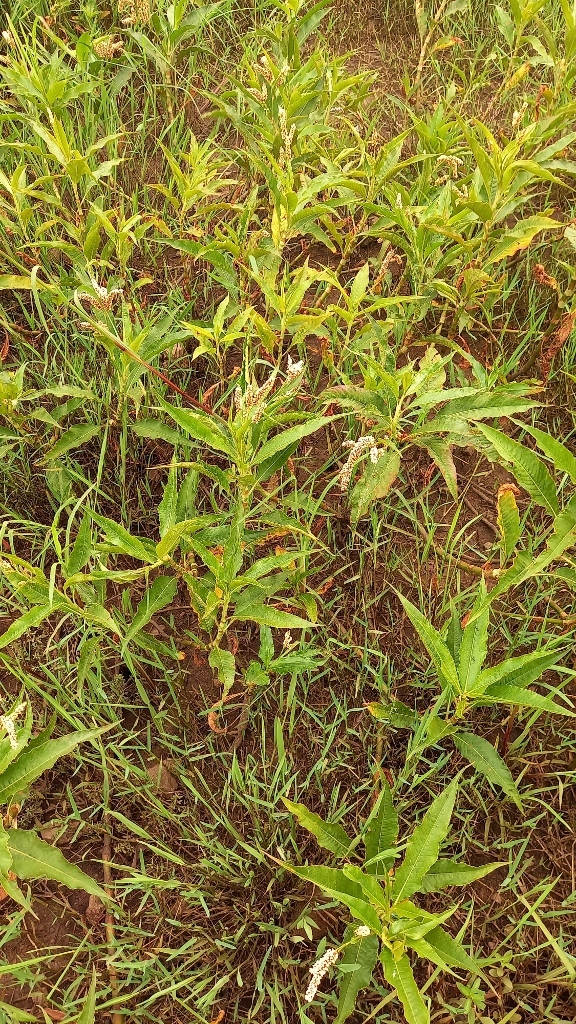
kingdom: Plantae
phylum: Tracheophyta
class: Magnoliopsida
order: Caryophyllales
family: Polygonaceae
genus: Persicaria
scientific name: Persicaria senegalensis
